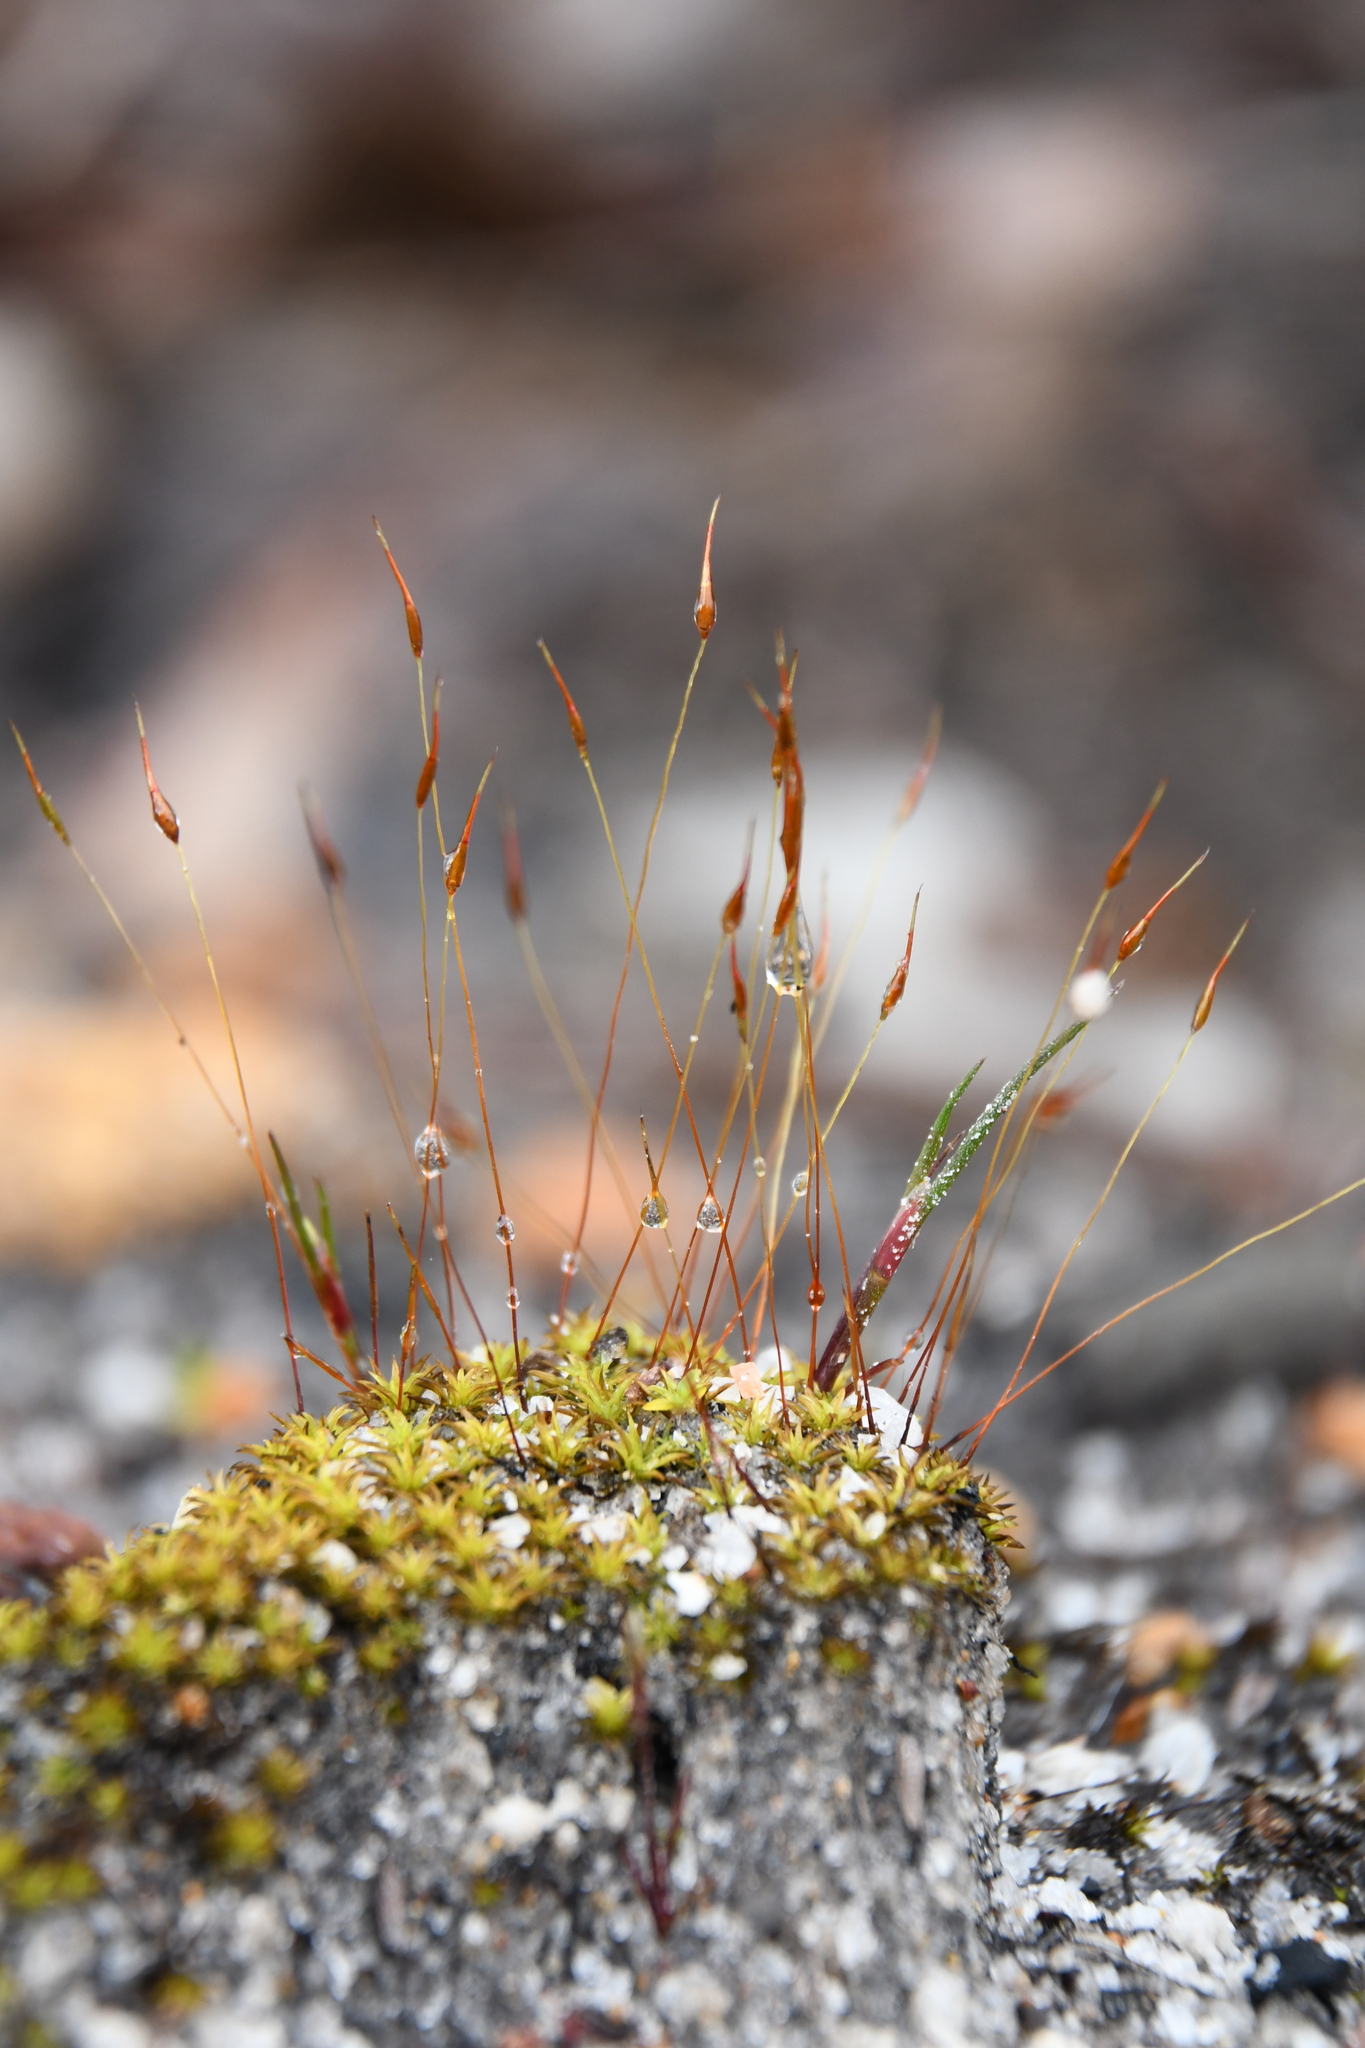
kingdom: Plantae
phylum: Bryophyta
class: Bryopsida
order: Dicranales
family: Ditrichaceae
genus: Ceratodon
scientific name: Ceratodon purpureus
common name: Redshank
